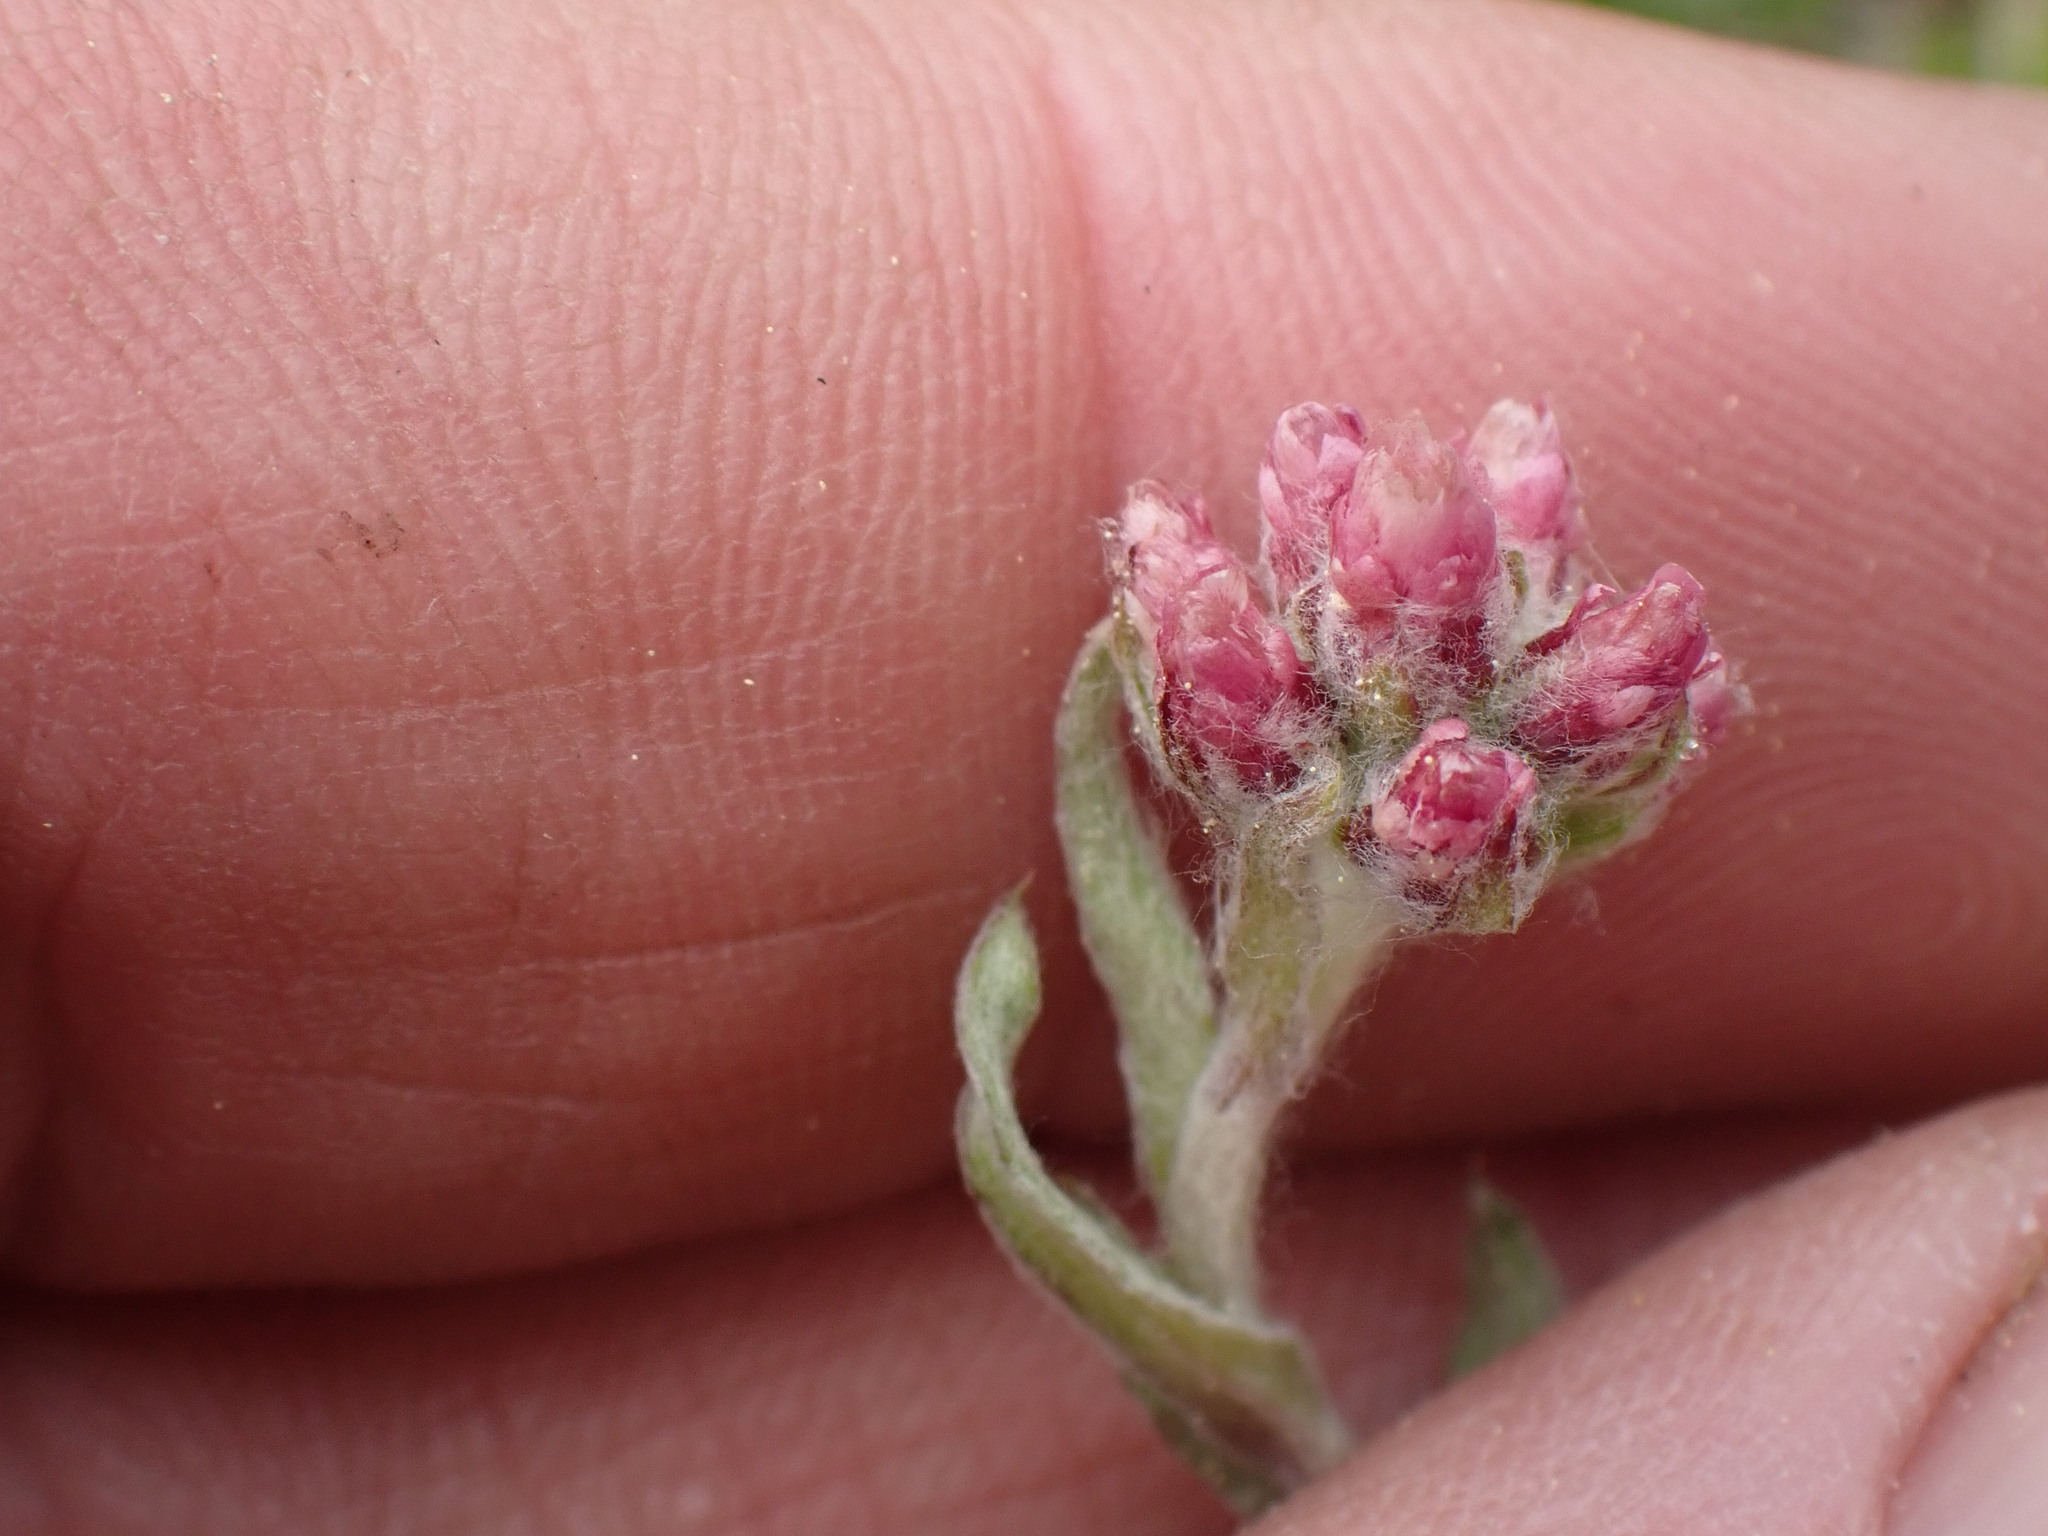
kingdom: Plantae
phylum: Tracheophyta
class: Magnoliopsida
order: Asterales
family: Asteraceae
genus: Antennaria
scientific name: Antennaria rosea
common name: Rosy pussytoes
